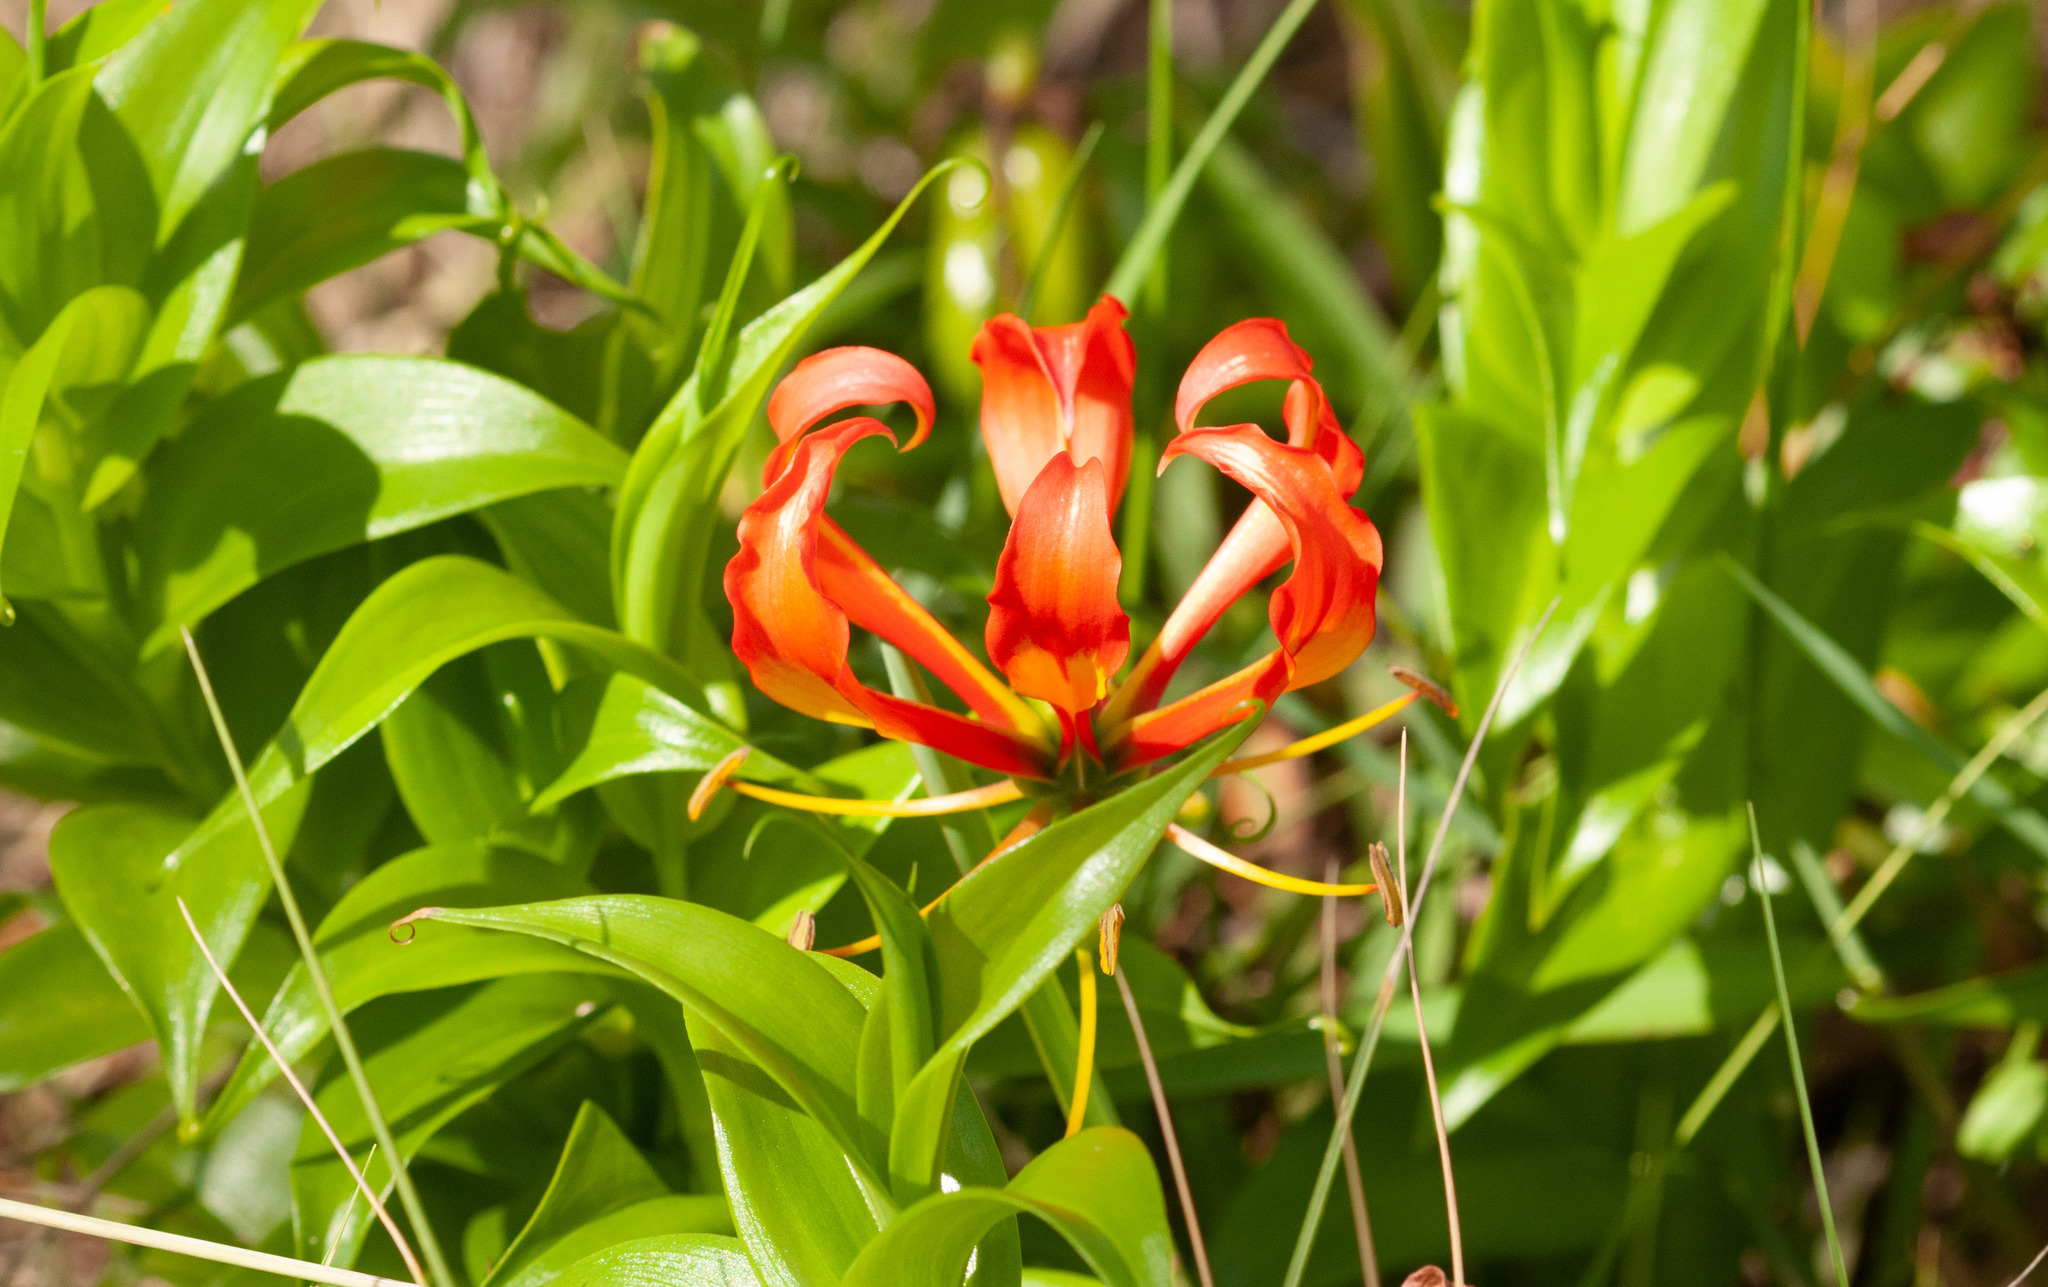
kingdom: Plantae
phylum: Tracheophyta
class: Liliopsida
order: Liliales
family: Colchicaceae
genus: Gloriosa
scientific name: Gloriosa superba
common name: Flame lily
